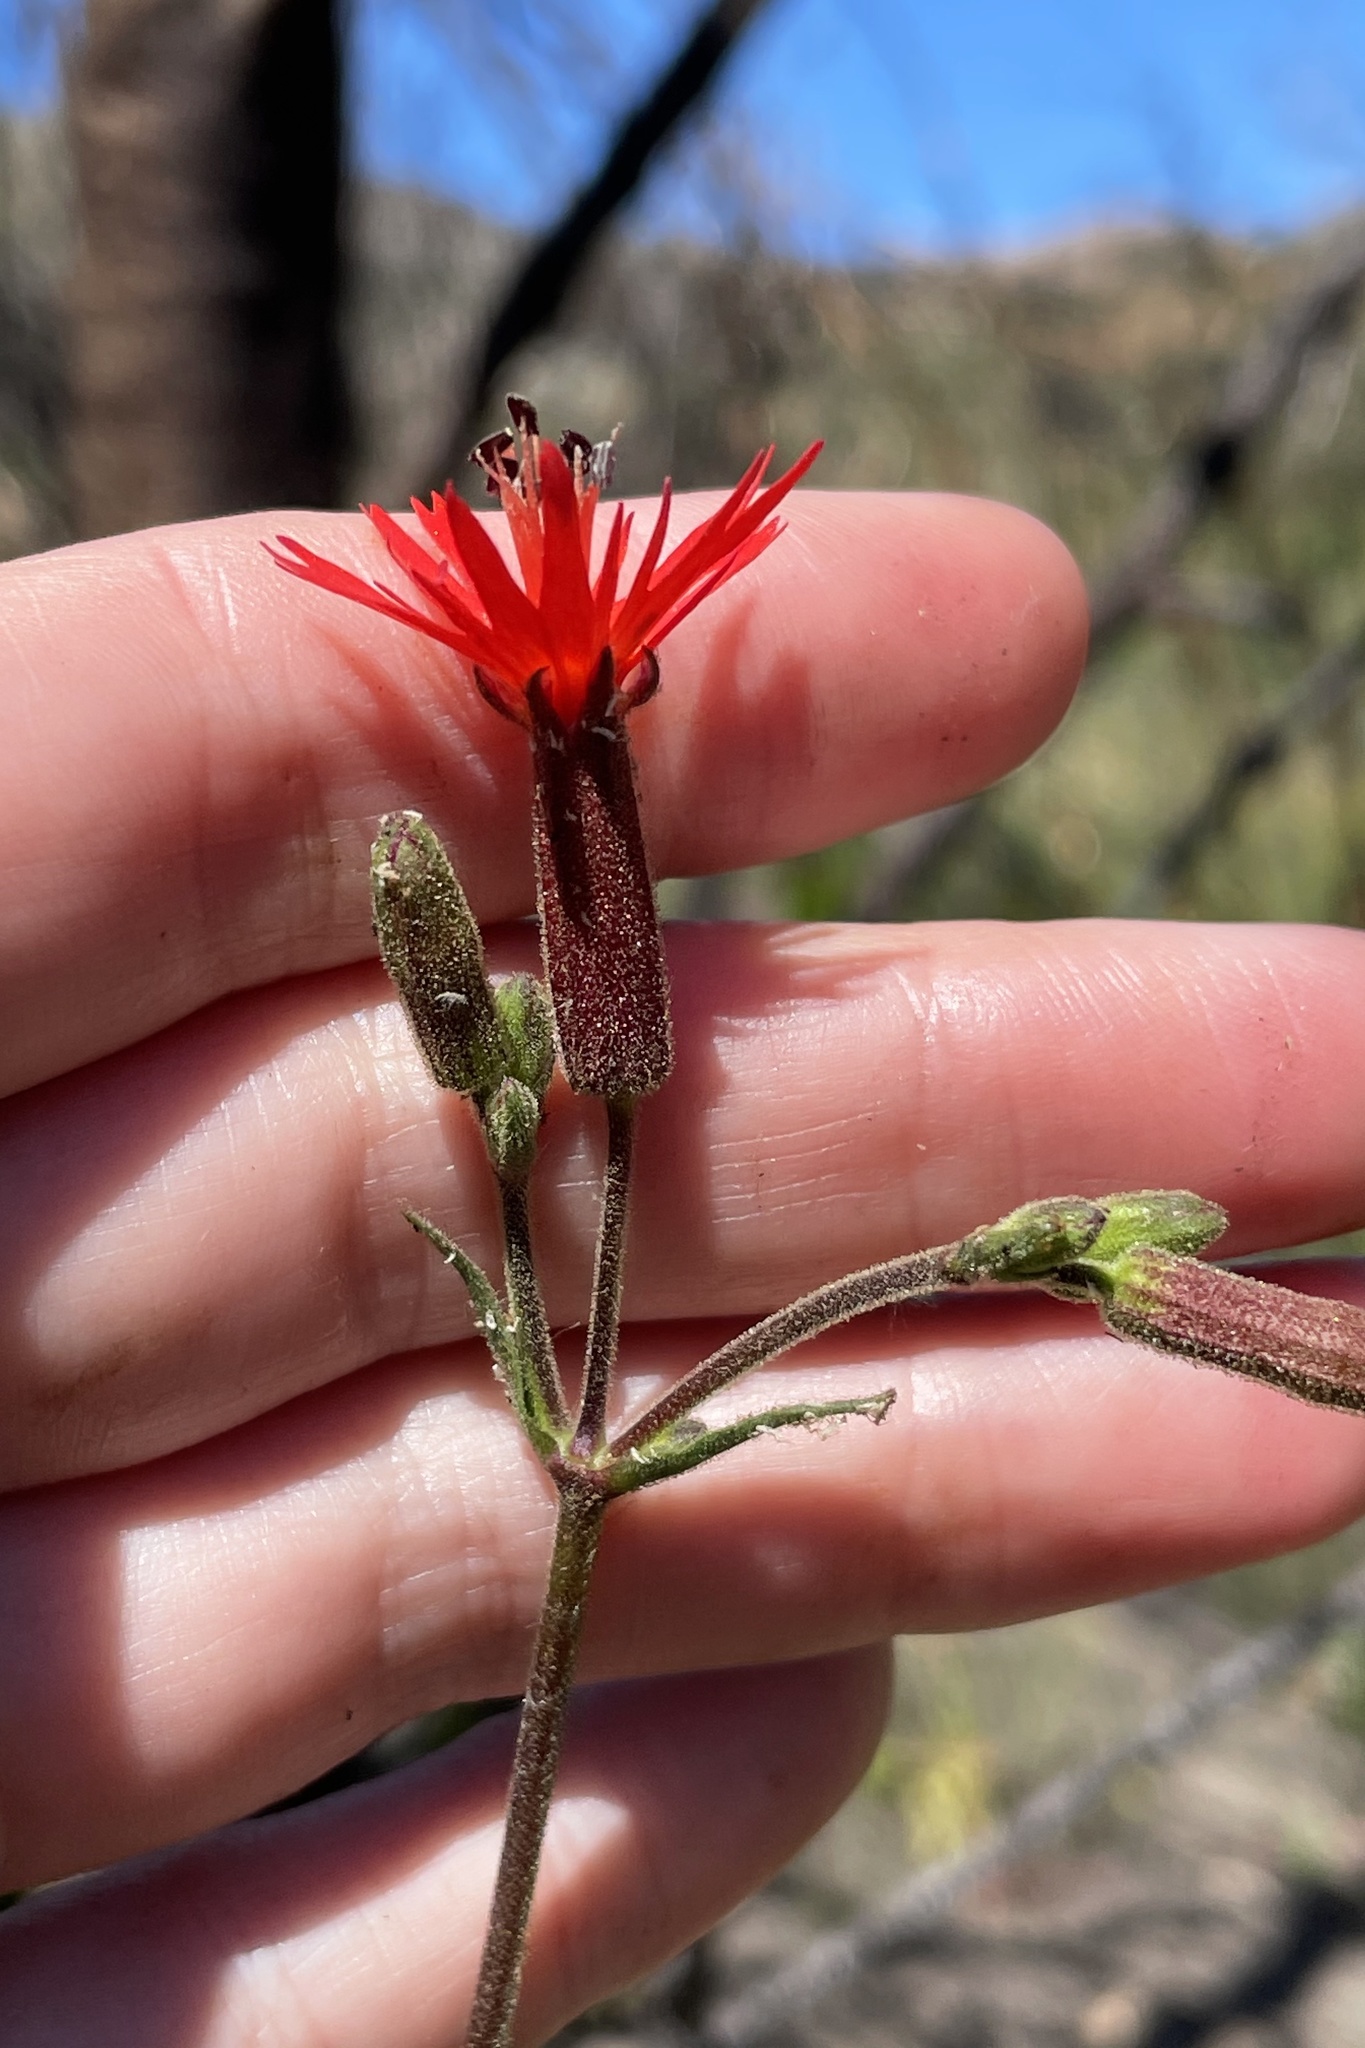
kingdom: Plantae
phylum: Tracheophyta
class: Magnoliopsida
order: Caryophyllales
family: Caryophyllaceae
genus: Silene
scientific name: Silene laciniata
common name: Indian-pink
